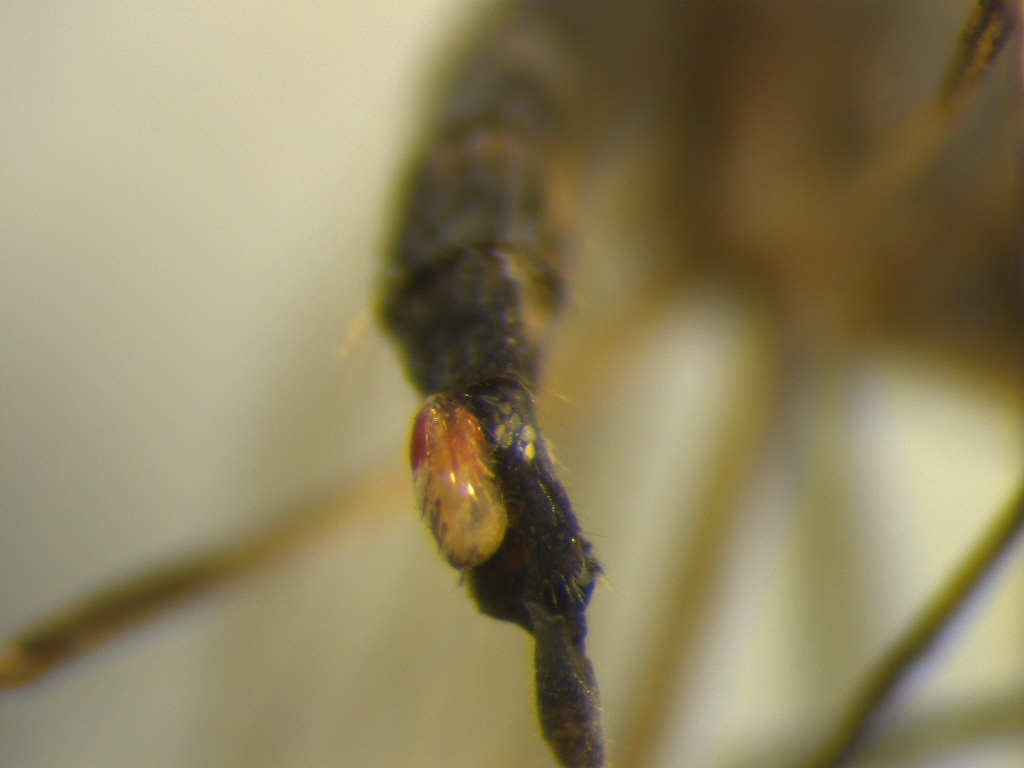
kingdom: Animalia
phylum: Arthropoda
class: Insecta
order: Diptera
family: Culicidae
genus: Aedes
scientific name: Aedes antipodeus
